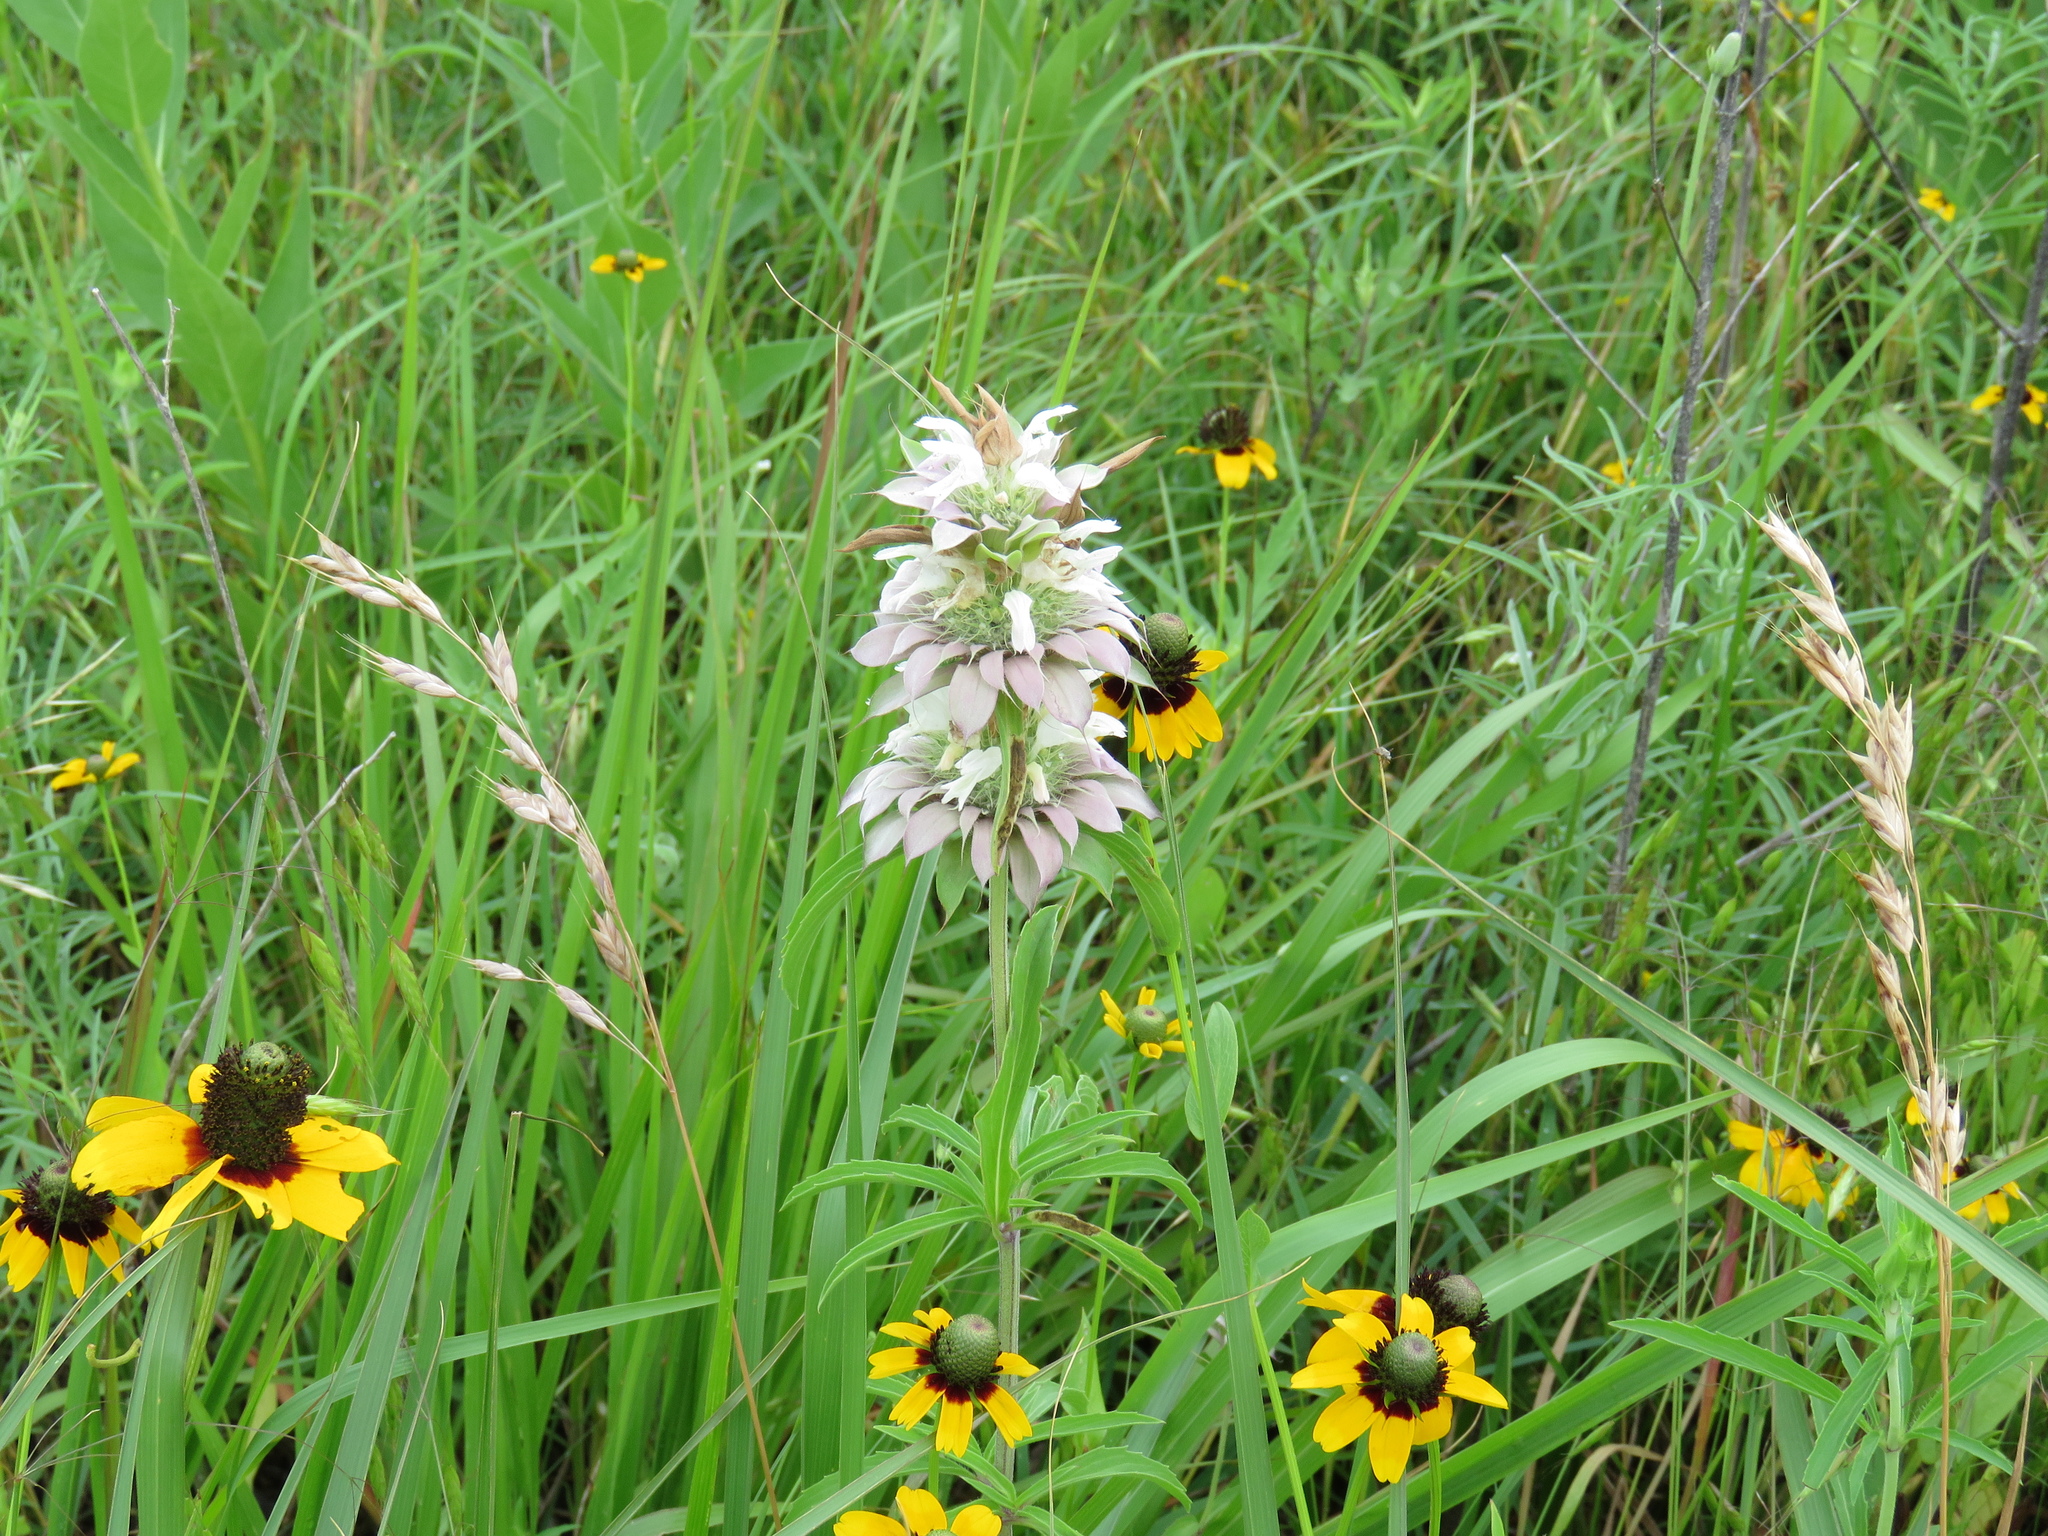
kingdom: Plantae
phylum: Tracheophyta
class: Magnoliopsida
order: Lamiales
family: Lamiaceae
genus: Monarda
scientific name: Monarda citriodora
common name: Lemon beebalm
